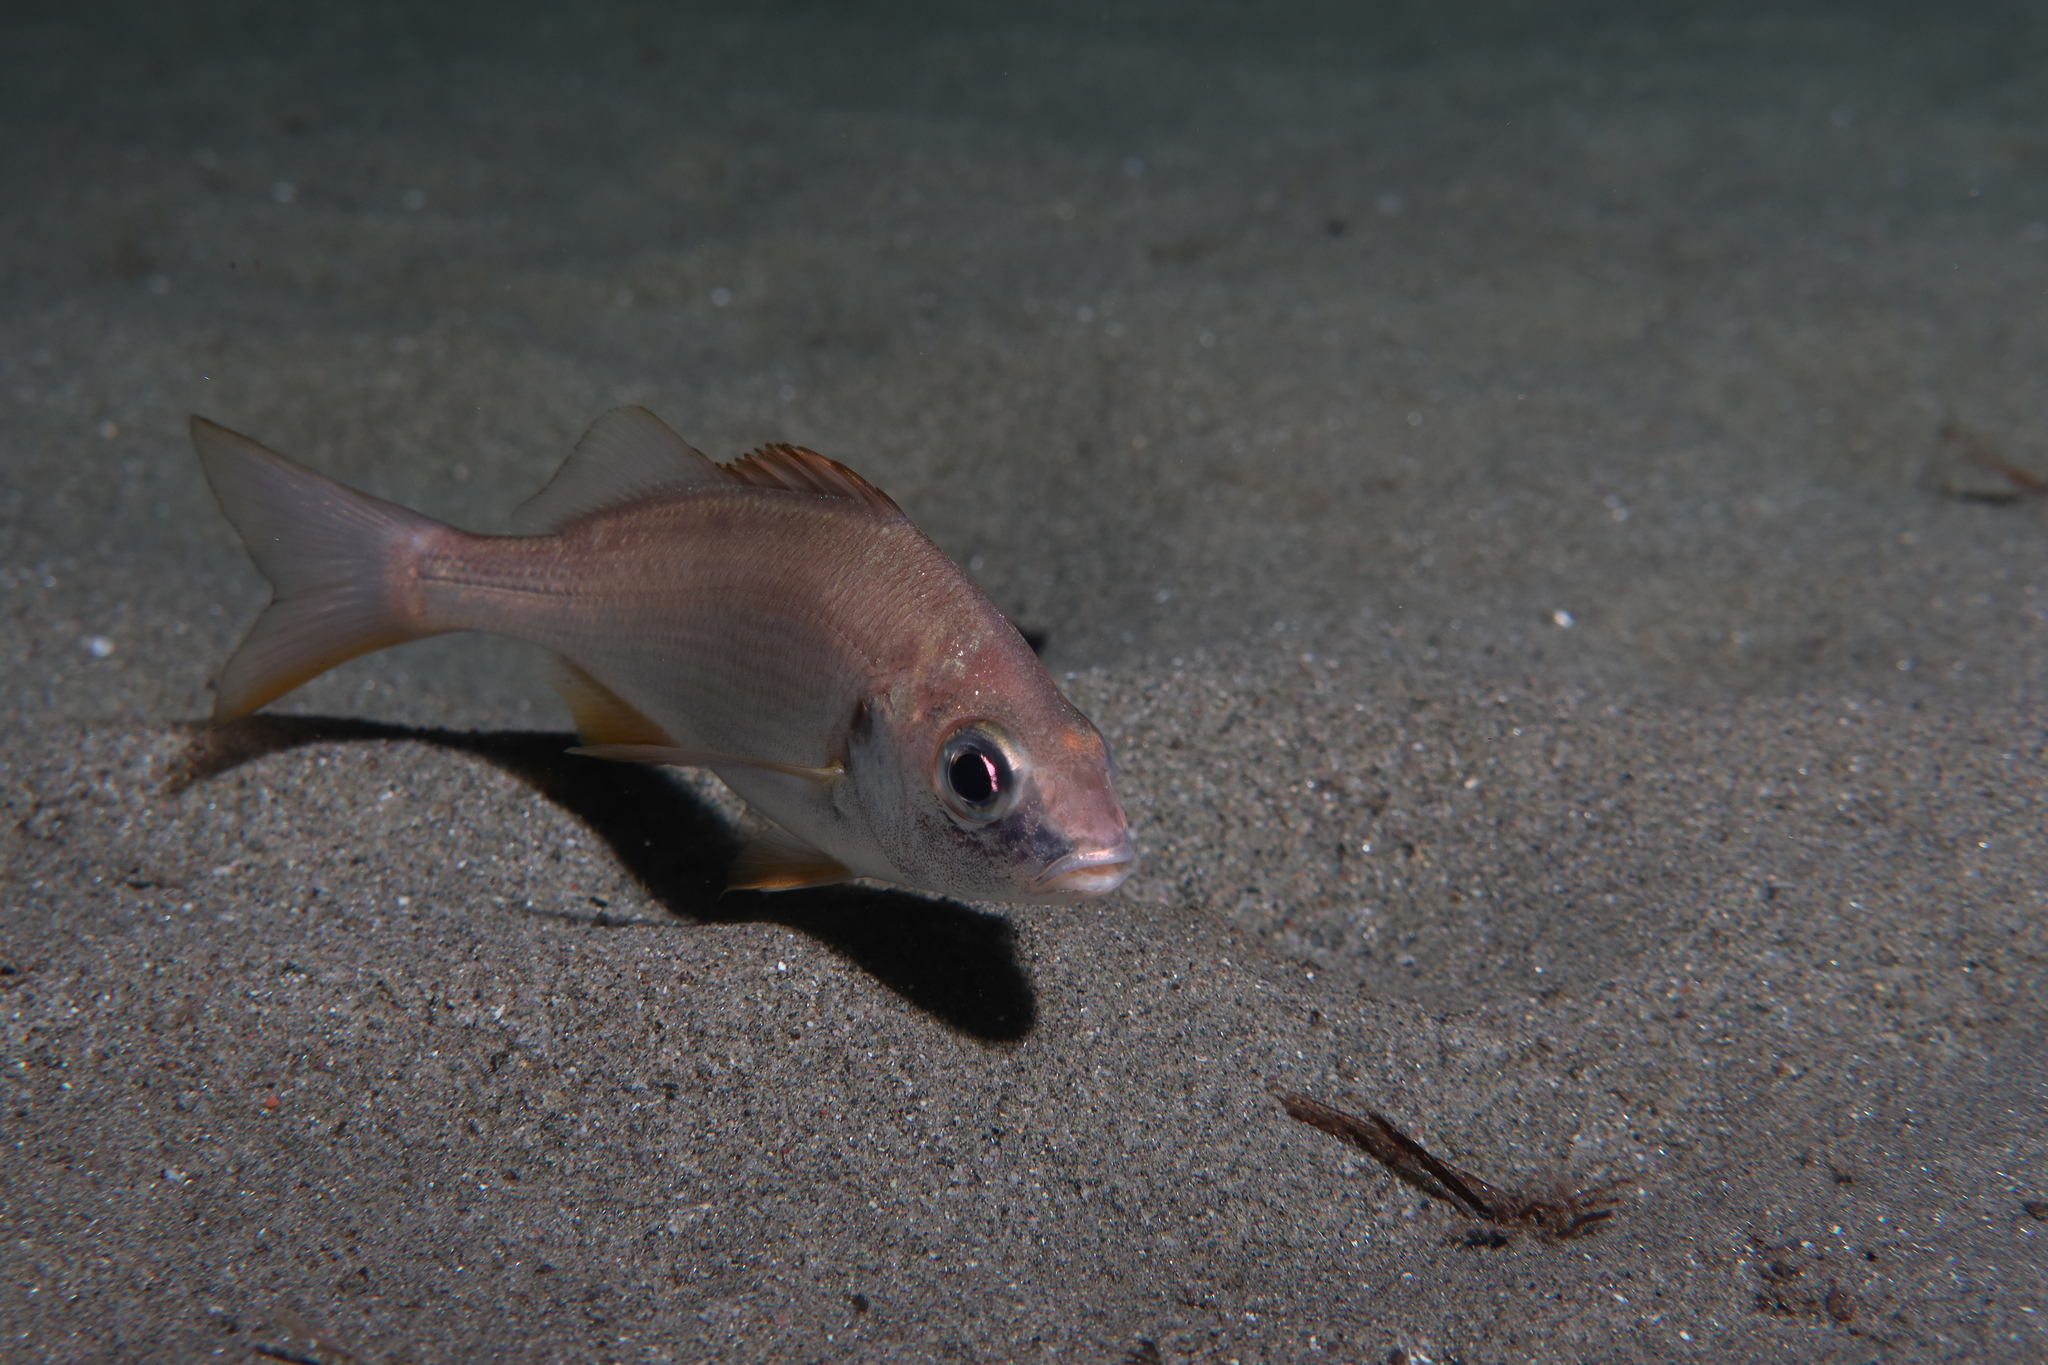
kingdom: Animalia
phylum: Chordata
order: Perciformes
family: Haemulidae
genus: Pomadasys
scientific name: Pomadasys incisus
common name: Bastard grunt
